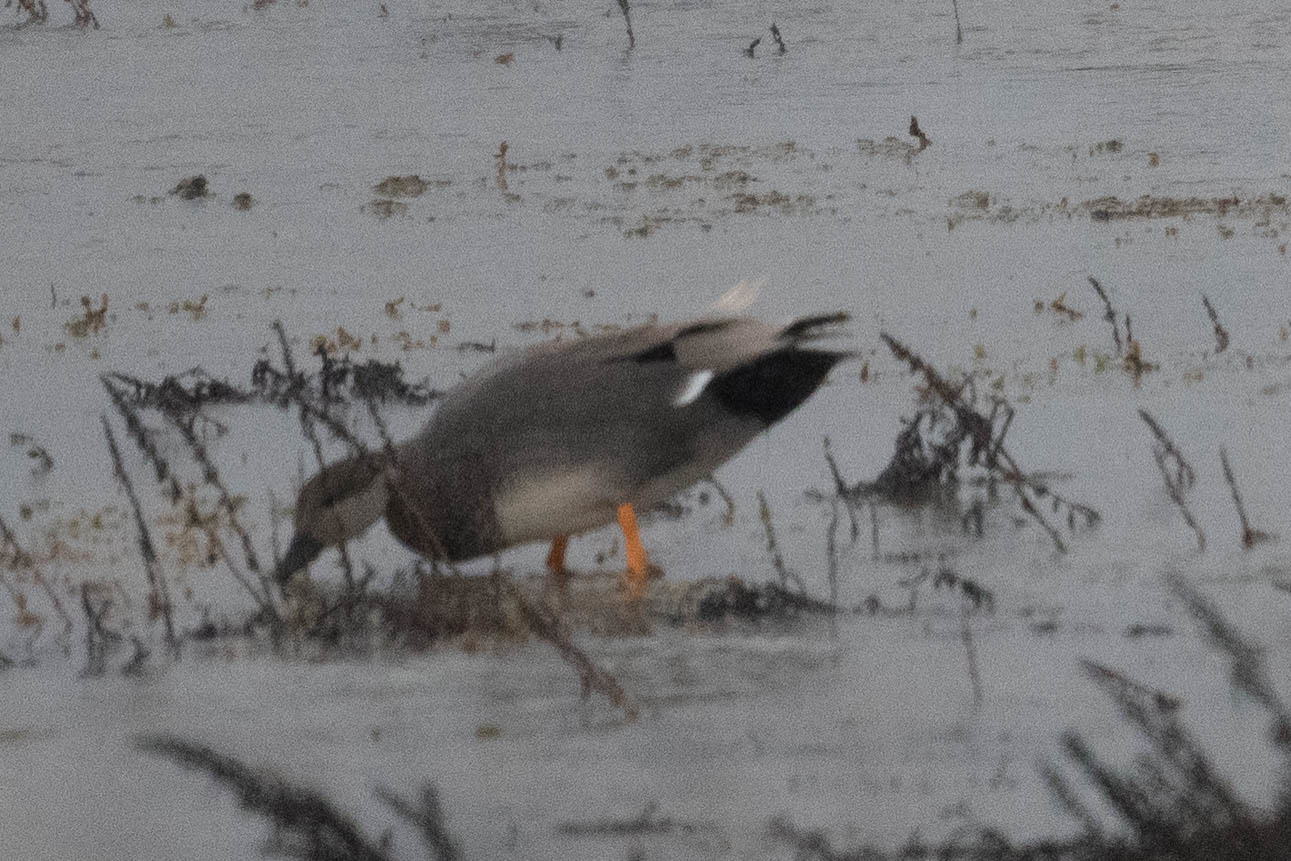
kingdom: Animalia
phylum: Chordata
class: Aves
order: Anseriformes
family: Anatidae
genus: Mareca
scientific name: Mareca strepera
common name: Gadwall
